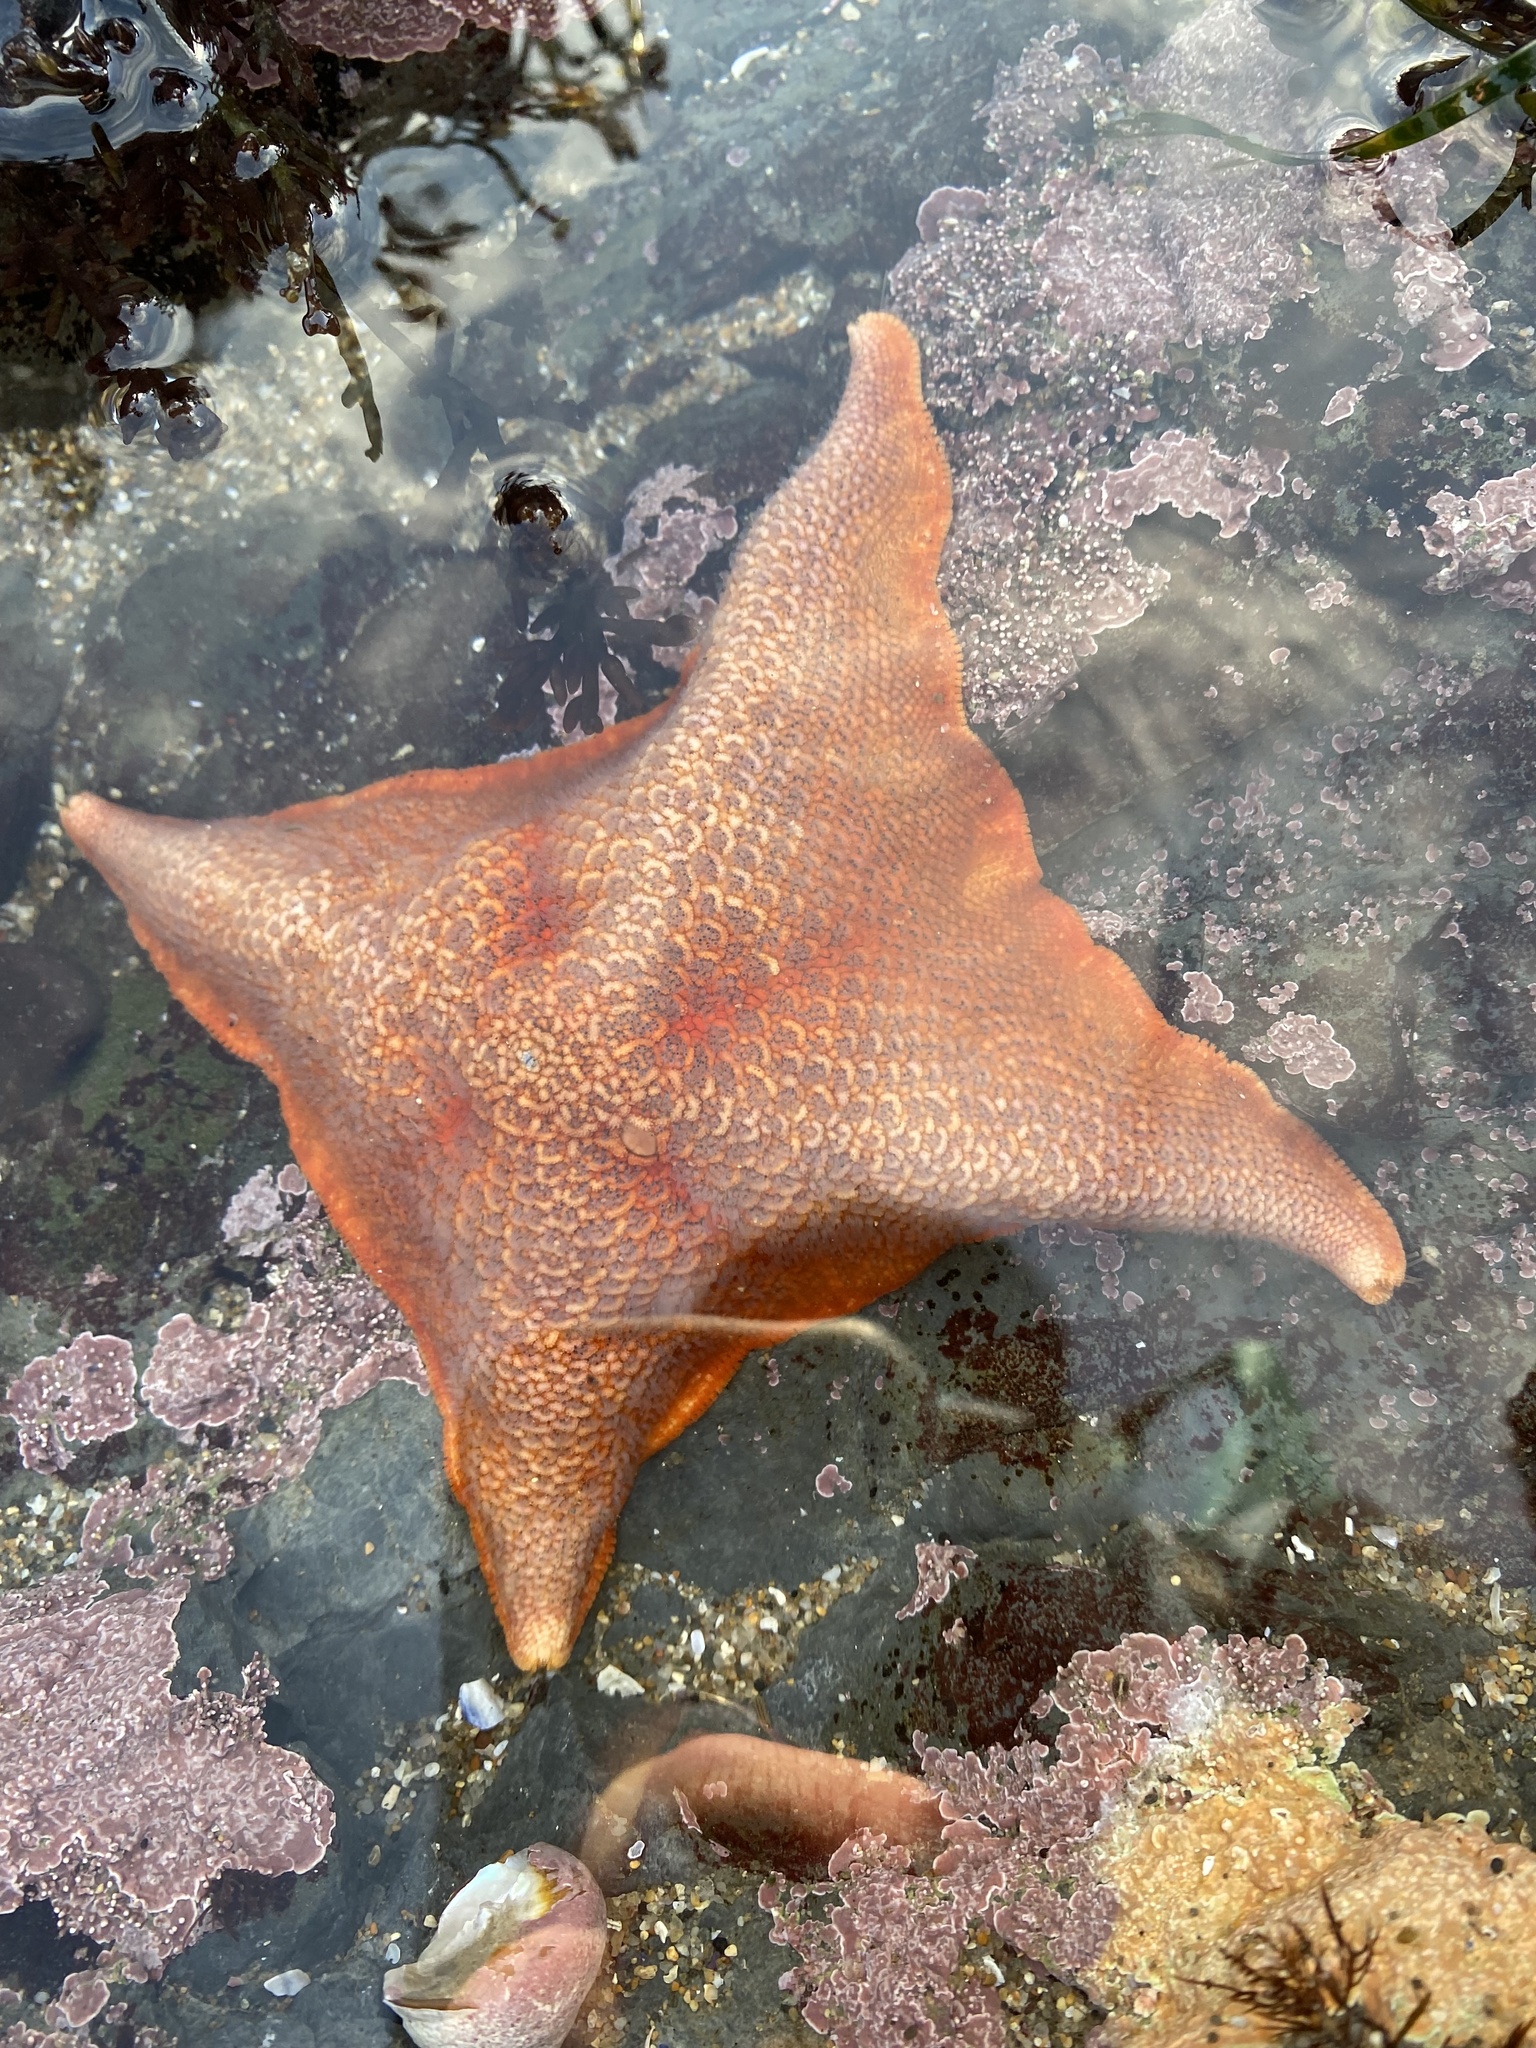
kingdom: Animalia
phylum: Echinodermata
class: Asteroidea
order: Valvatida
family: Asterinidae
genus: Patiria
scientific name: Patiria miniata
